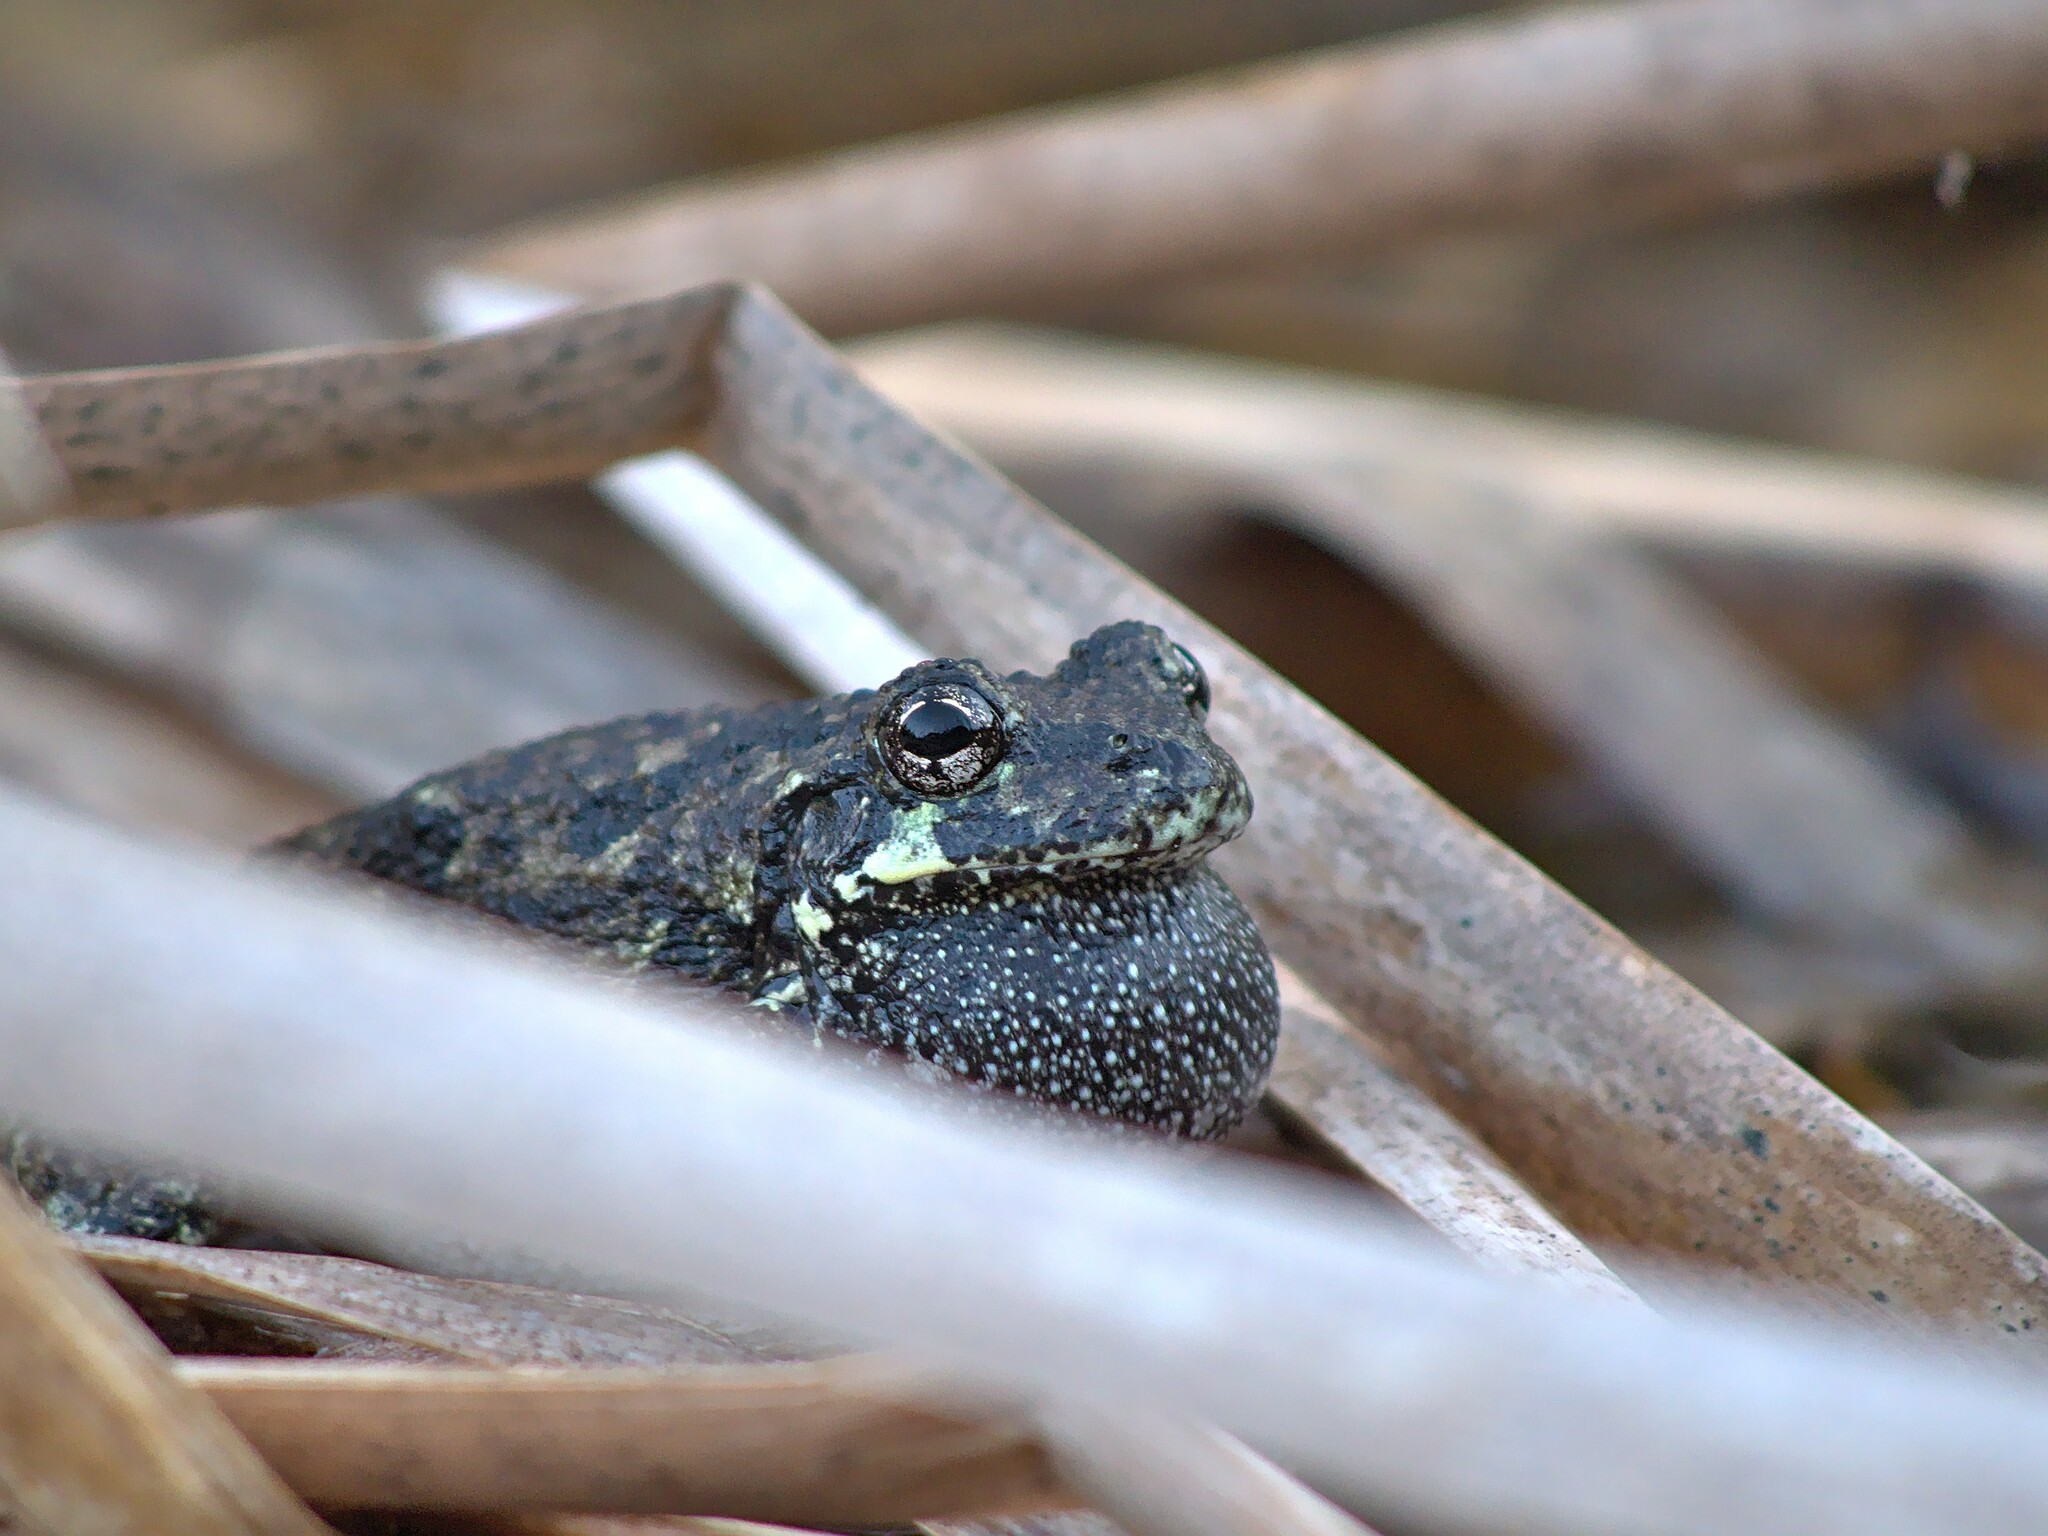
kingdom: Animalia
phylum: Chordata
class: Amphibia
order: Anura
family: Hylidae
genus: Dryophytes
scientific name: Dryophytes versicolor
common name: Gray treefrog
